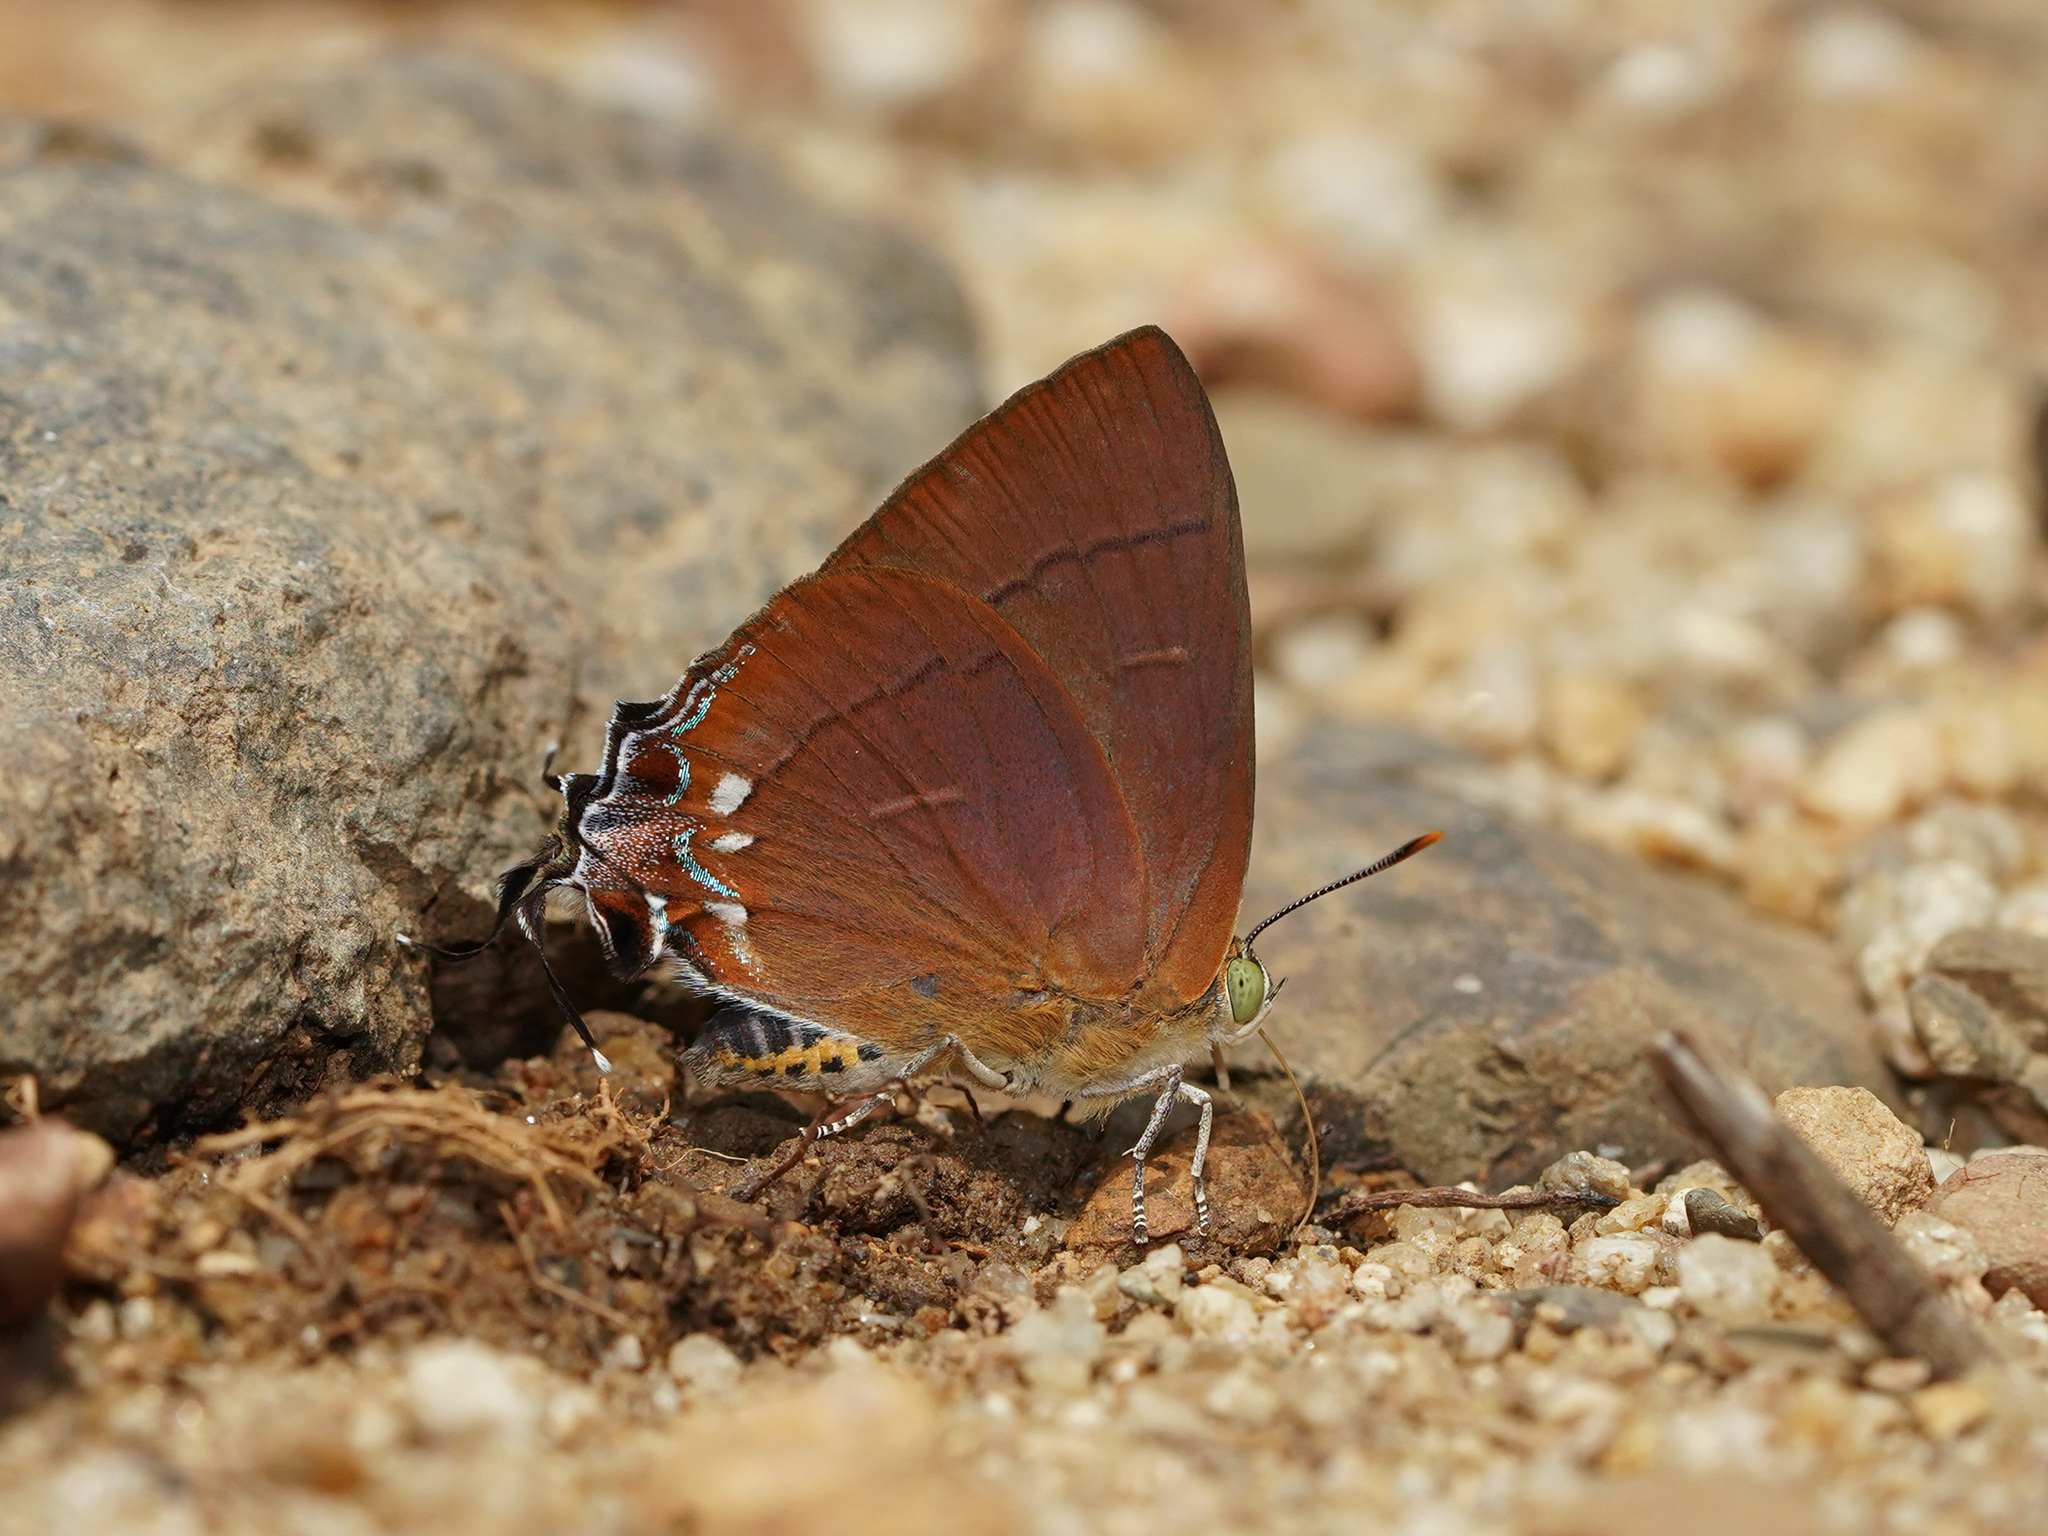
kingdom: Animalia
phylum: Arthropoda
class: Insecta
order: Lepidoptera
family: Lycaenidae
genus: Remelana
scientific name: Remelana jangala
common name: Chocolate royal
